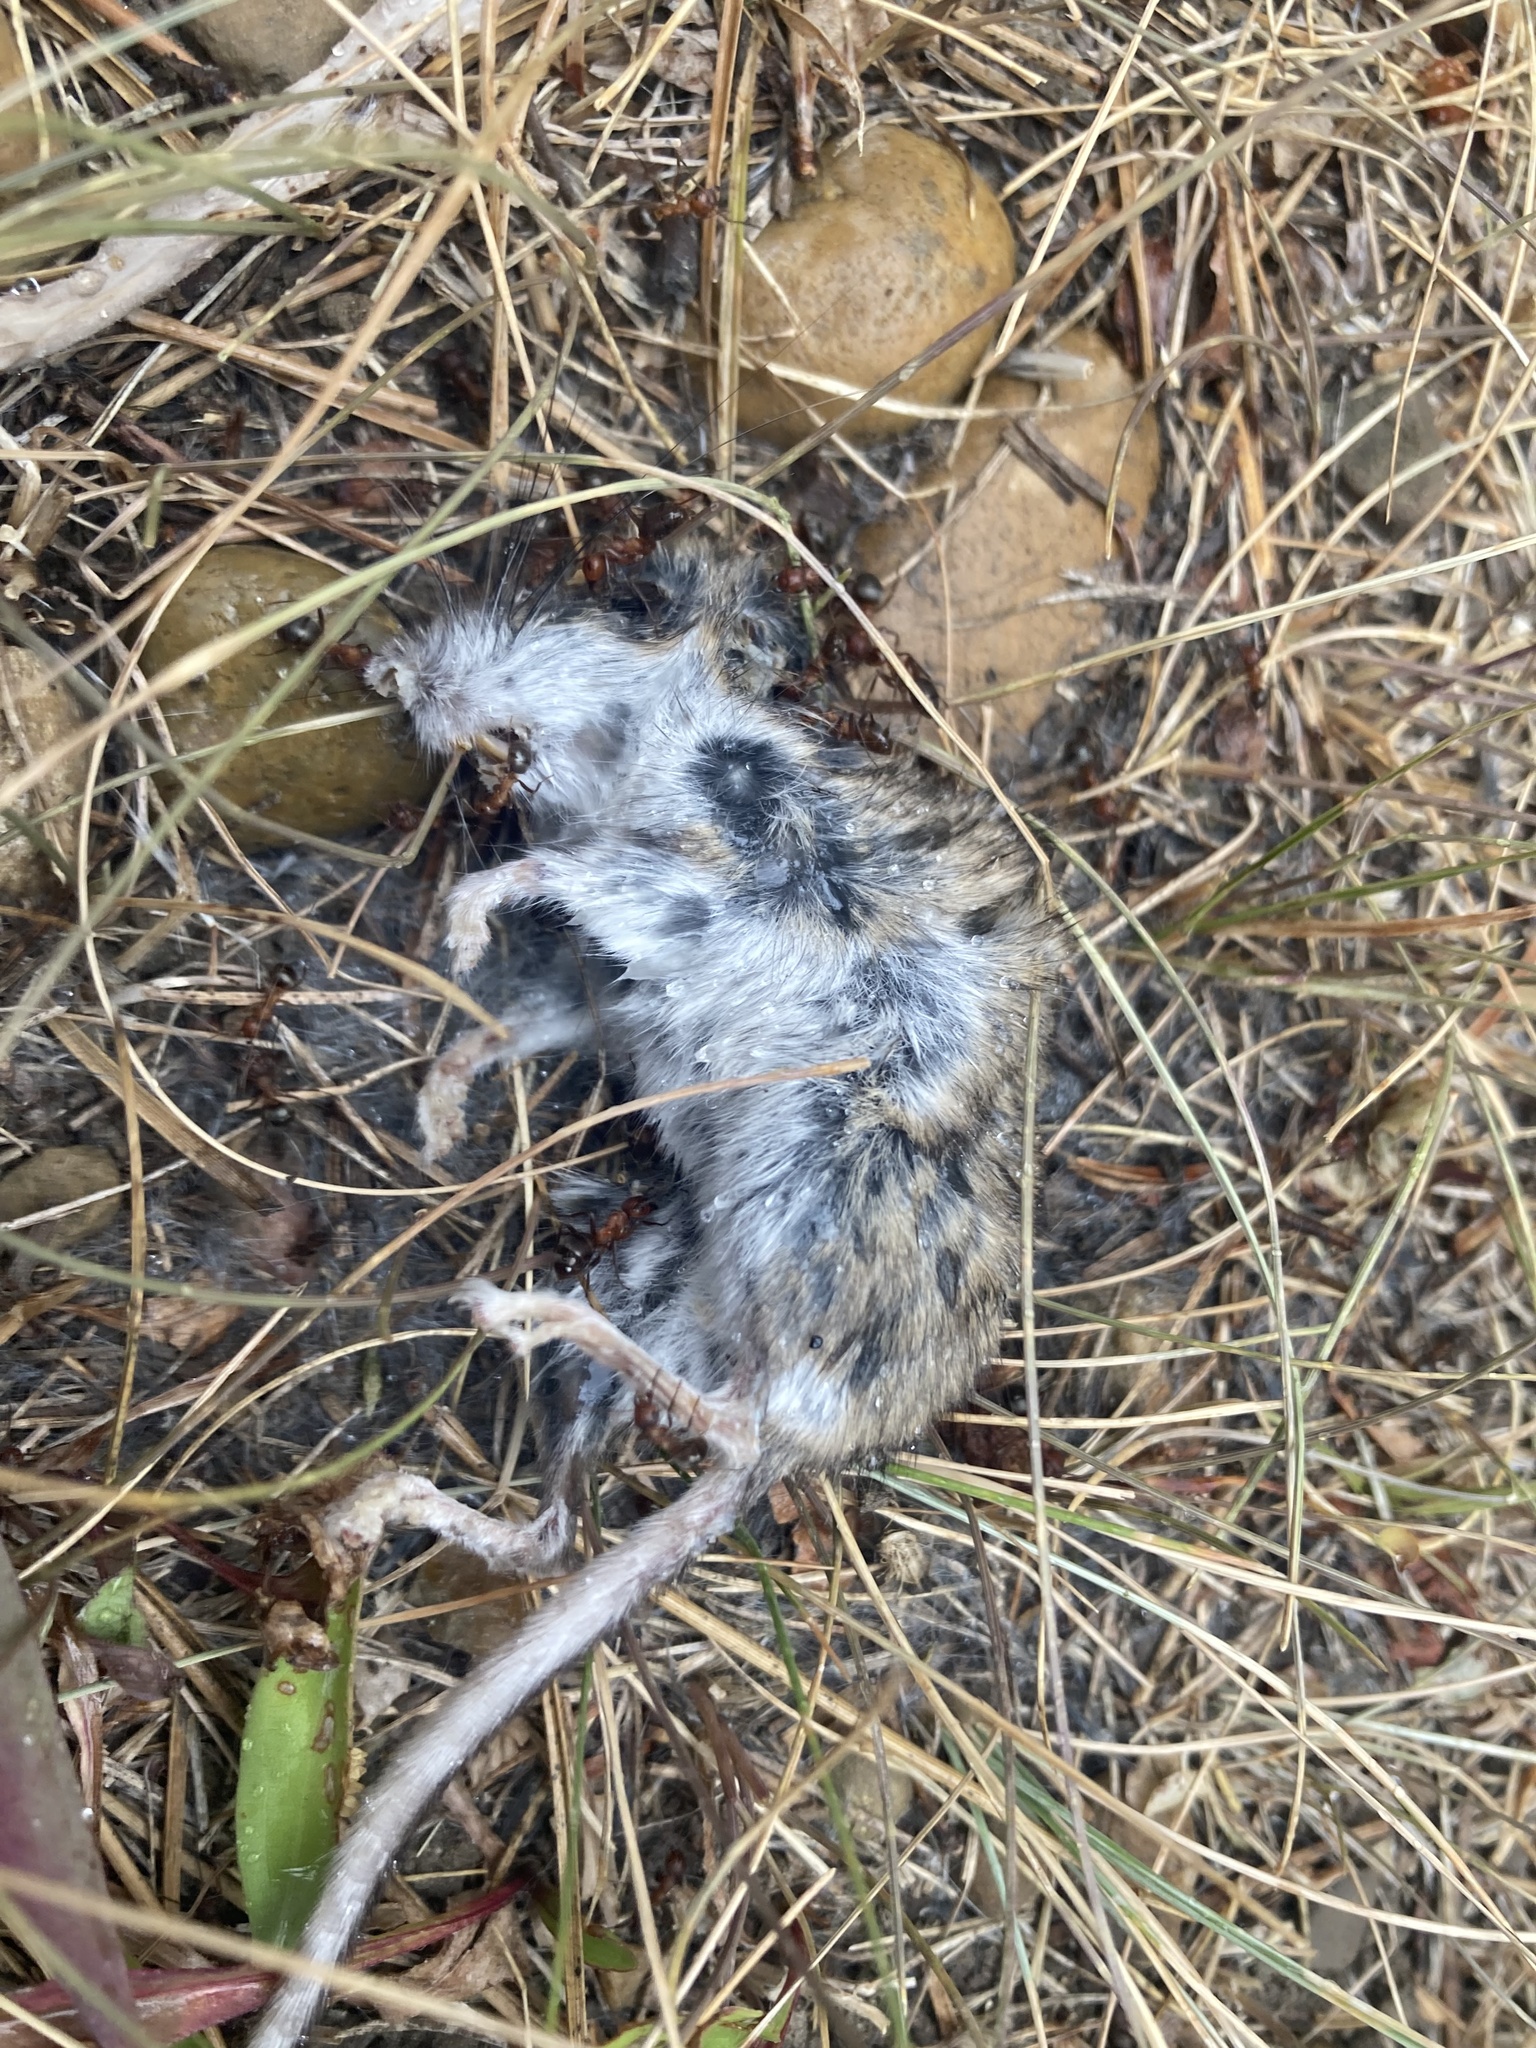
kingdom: Animalia
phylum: Chordata
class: Mammalia
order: Rodentia
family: Cricetidae
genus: Peromyscus
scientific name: Peromyscus maniculatus
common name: Deer mouse
